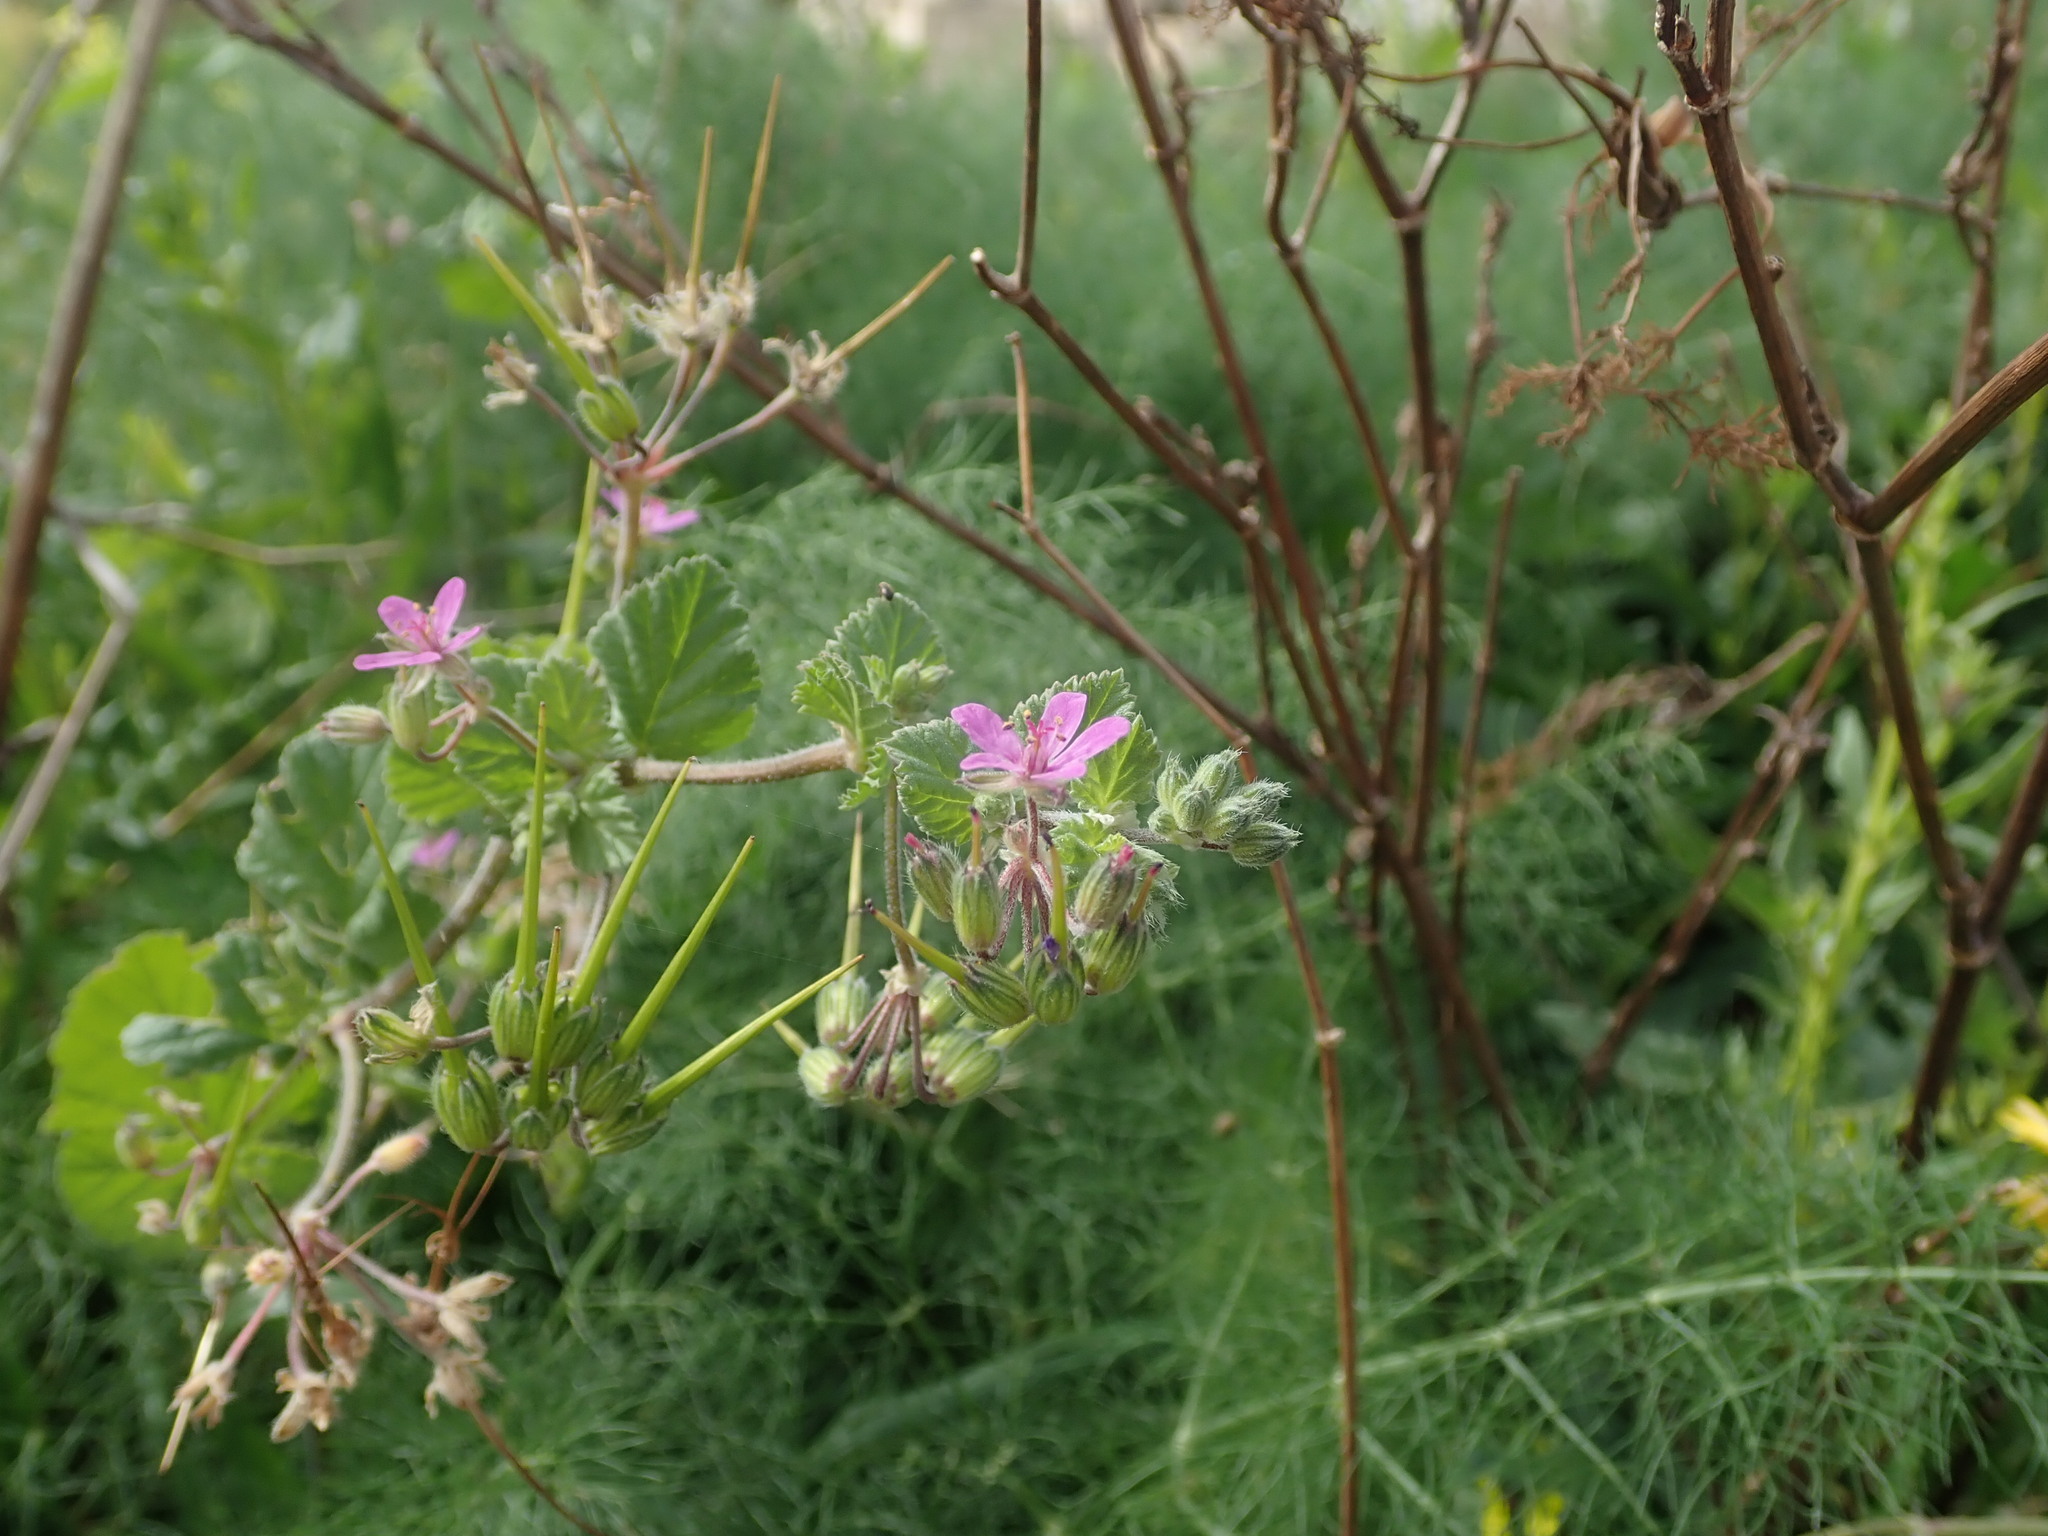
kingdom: Plantae
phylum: Tracheophyta
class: Magnoliopsida
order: Geraniales
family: Geraniaceae
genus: Erodium
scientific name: Erodium malacoides
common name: Soft stork's-bill
